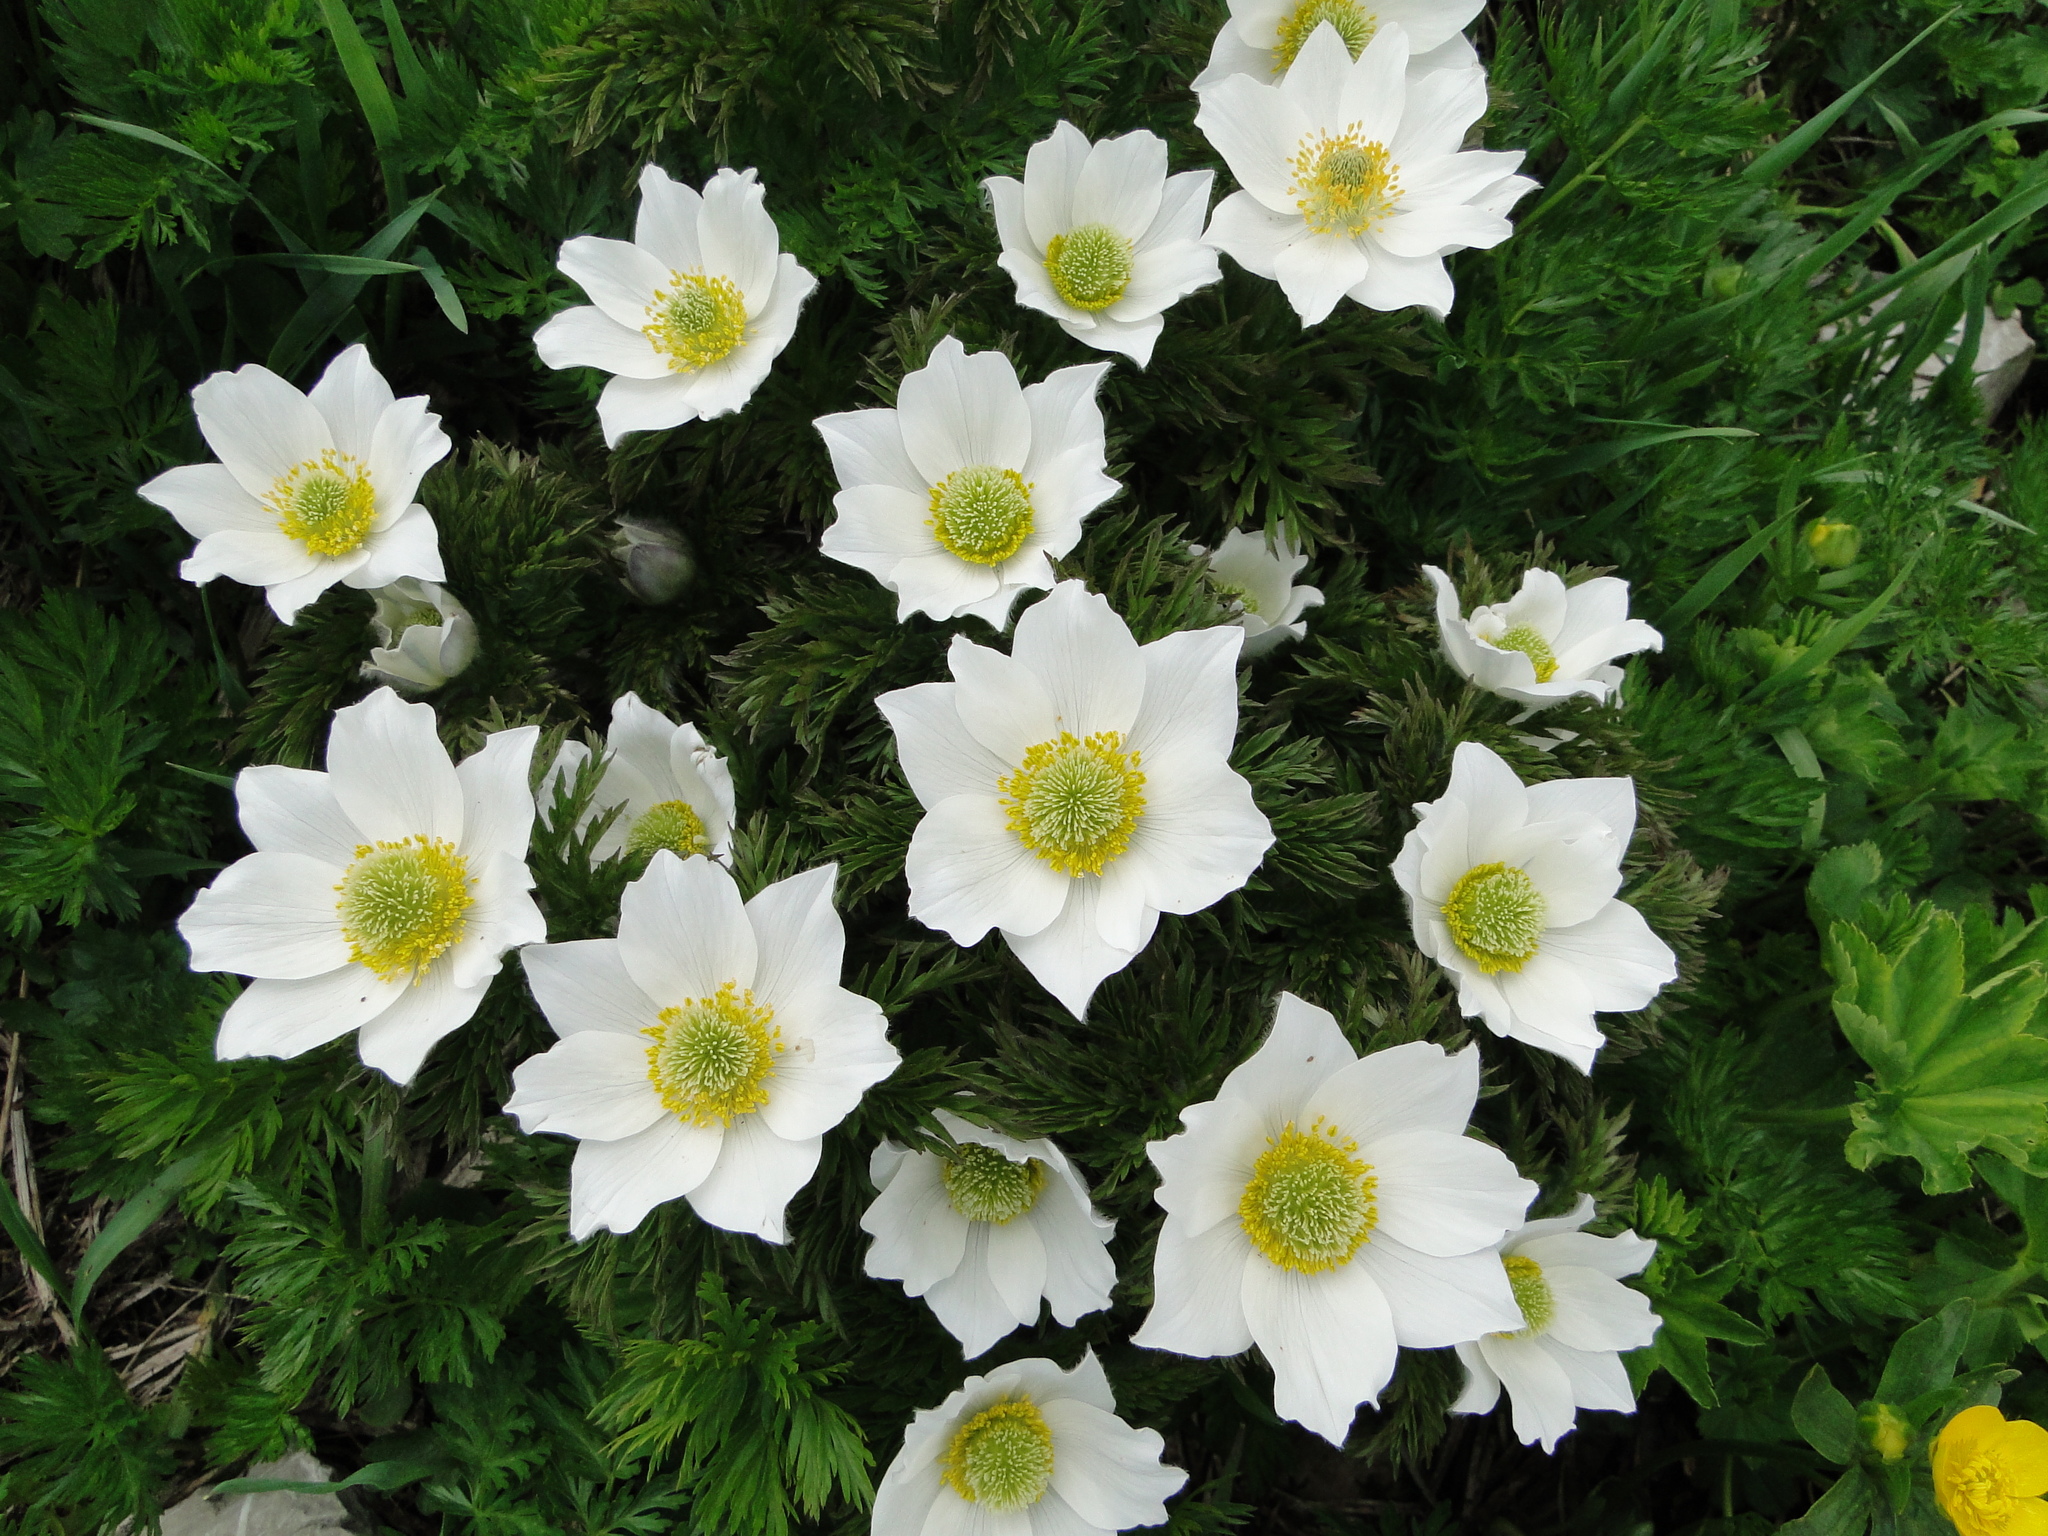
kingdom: Plantae
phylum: Tracheophyta
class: Magnoliopsida
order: Ranunculales
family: Ranunculaceae
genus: Pulsatilla
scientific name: Pulsatilla alpina
